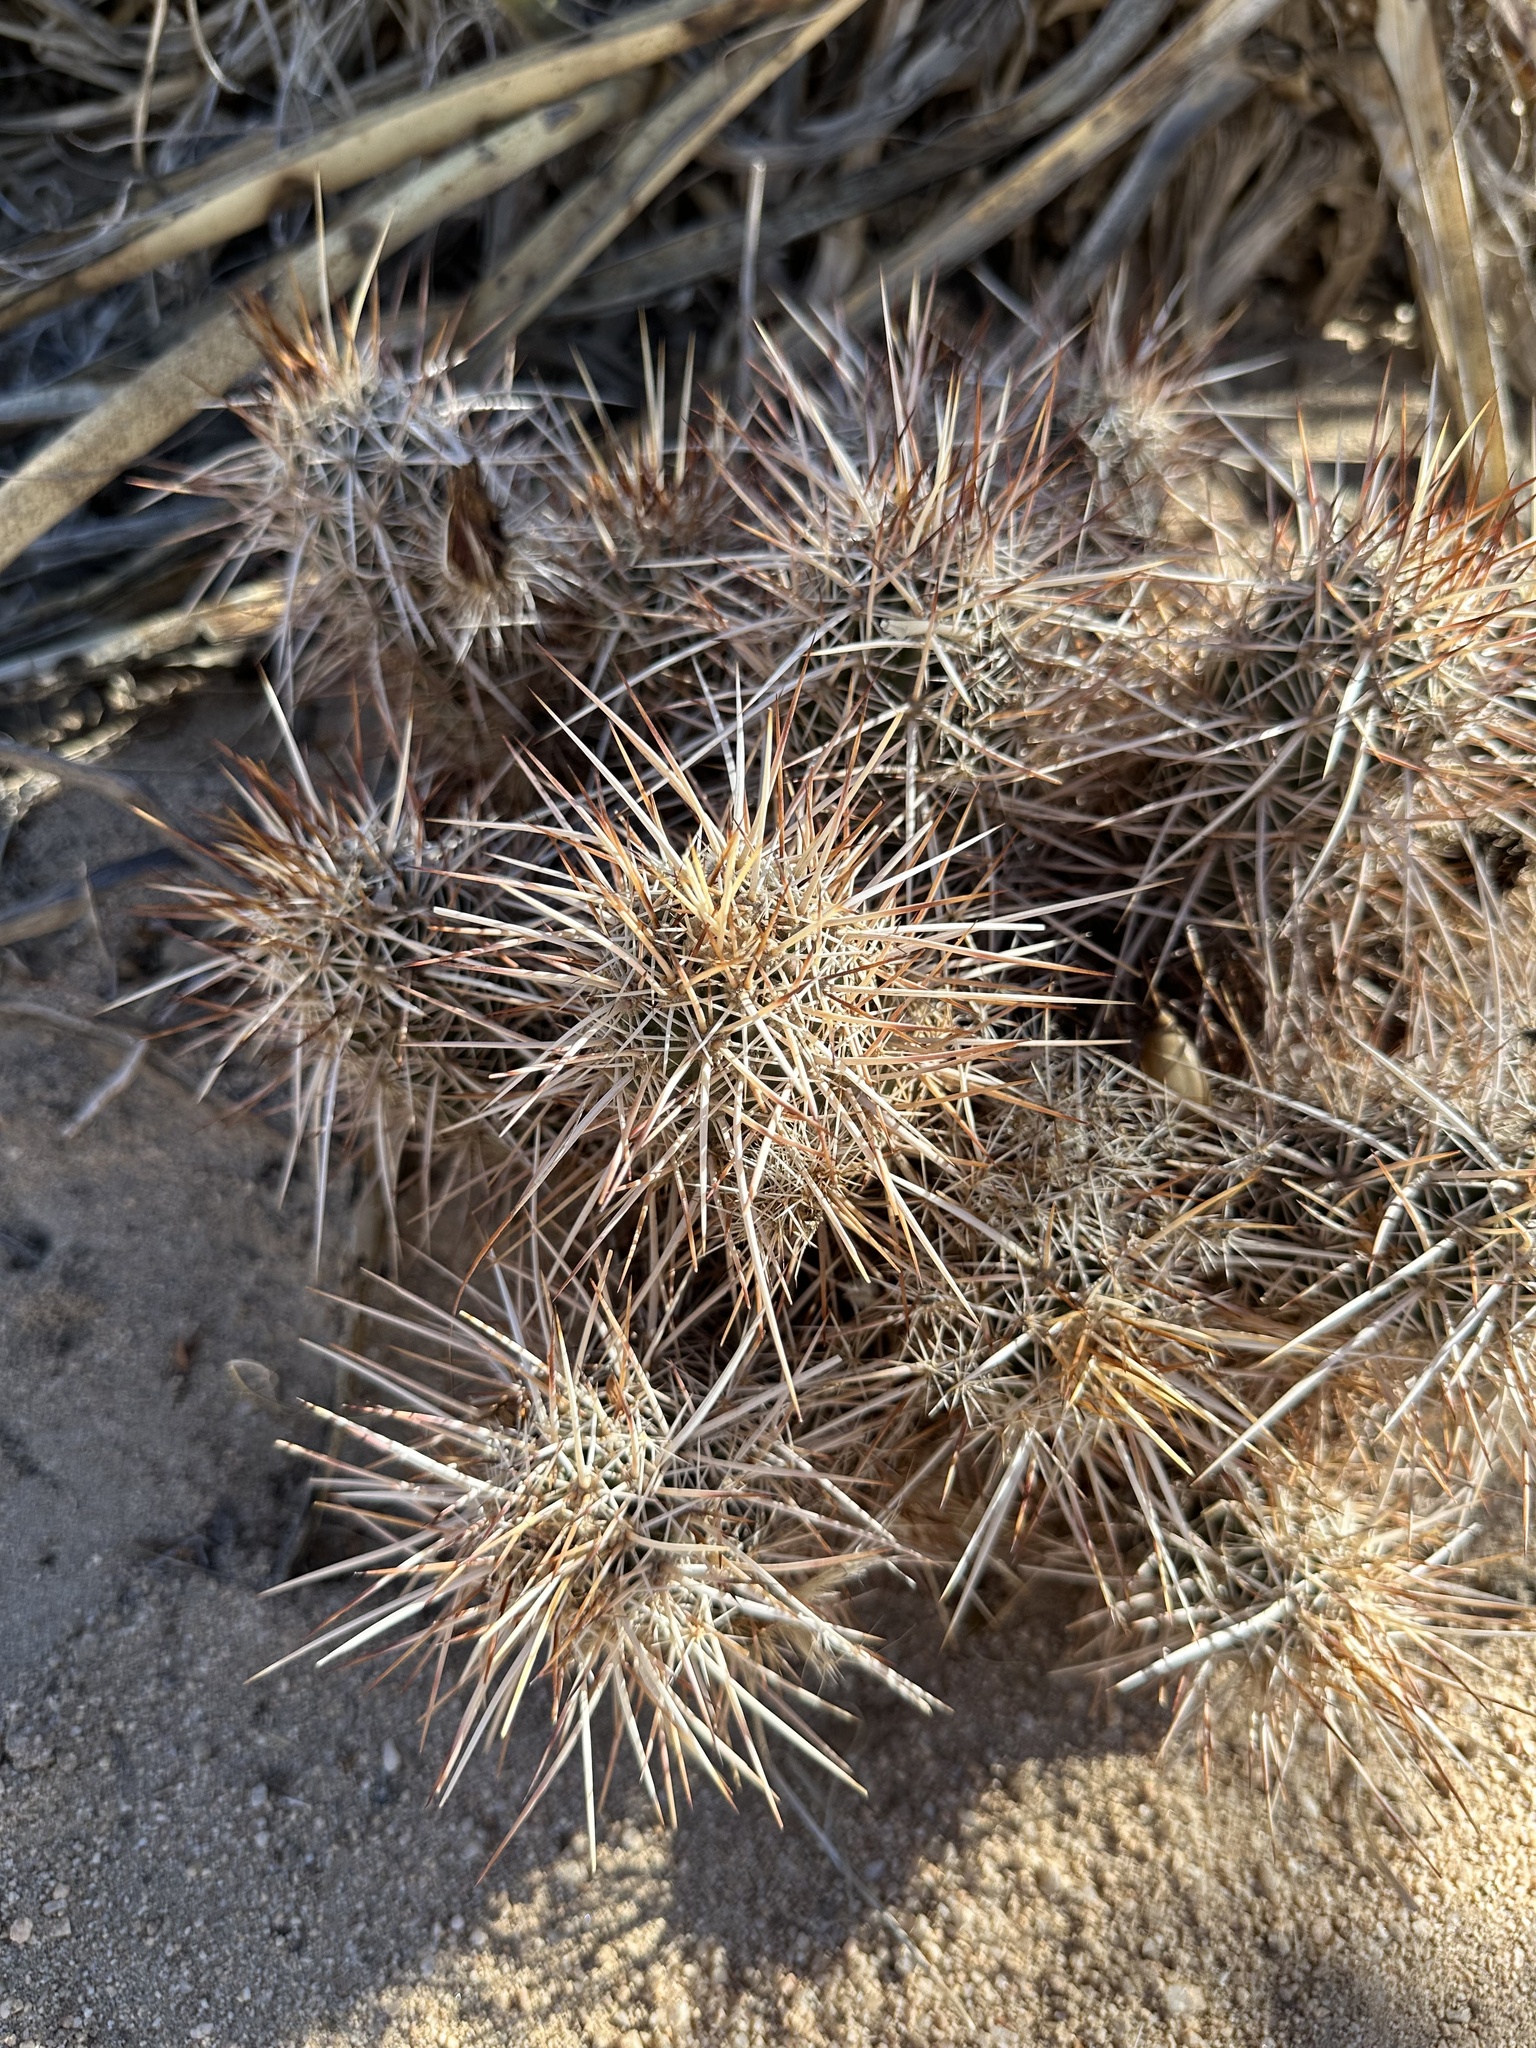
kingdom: Plantae
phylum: Tracheophyta
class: Magnoliopsida
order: Caryophyllales
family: Cactaceae
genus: Echinocereus
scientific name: Echinocereus engelmannii
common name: Engelmann's hedgehog cactus
